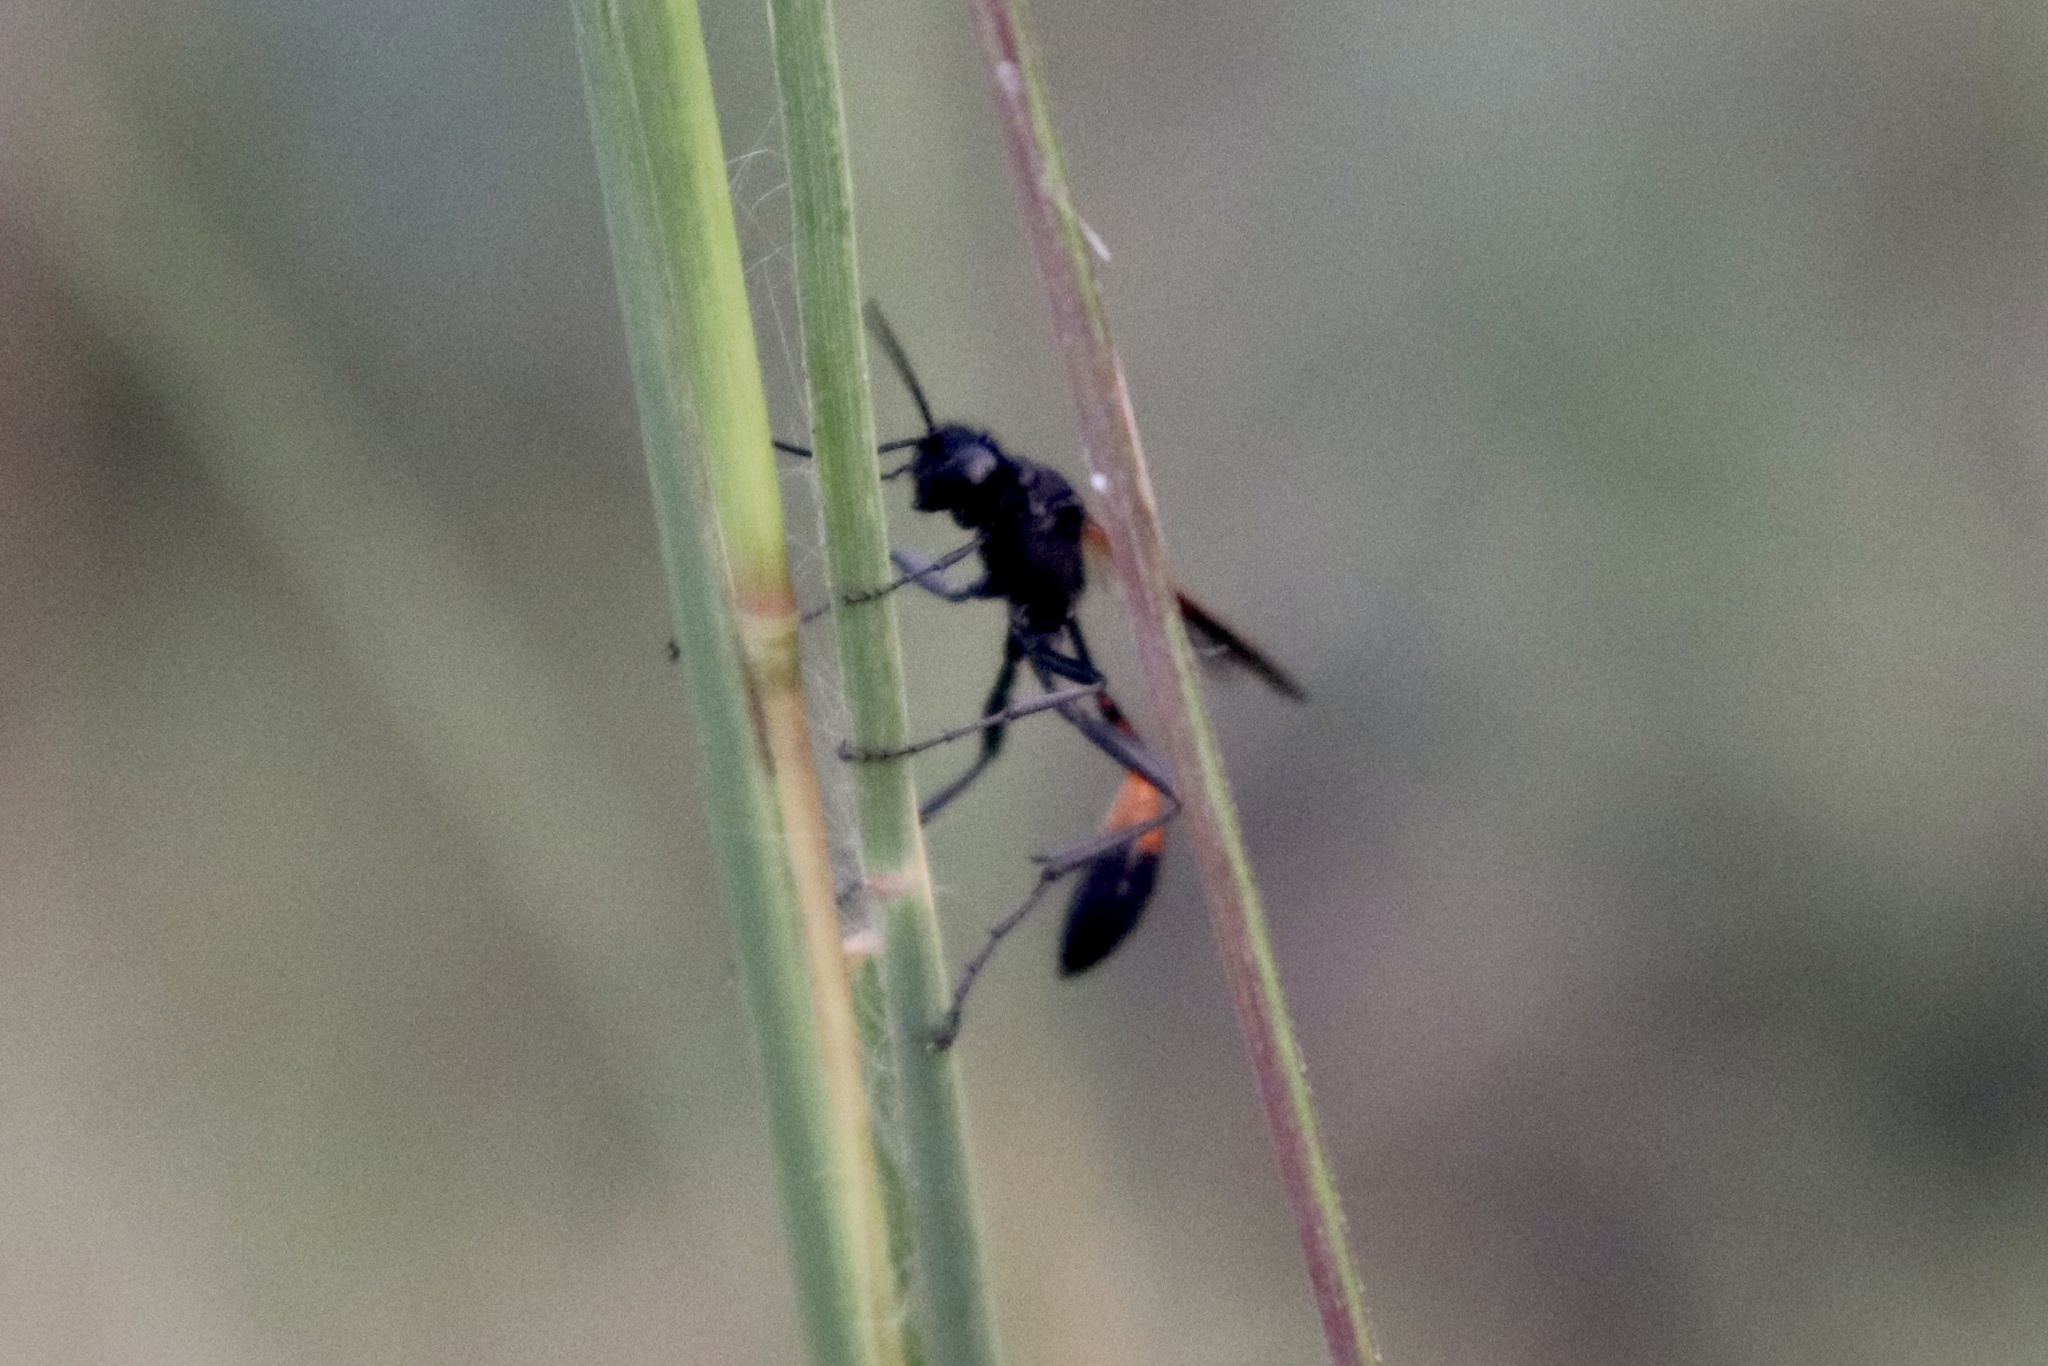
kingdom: Animalia
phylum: Arthropoda
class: Insecta
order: Hymenoptera
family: Sphecidae
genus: Ammophila
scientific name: Ammophila pictipennis
